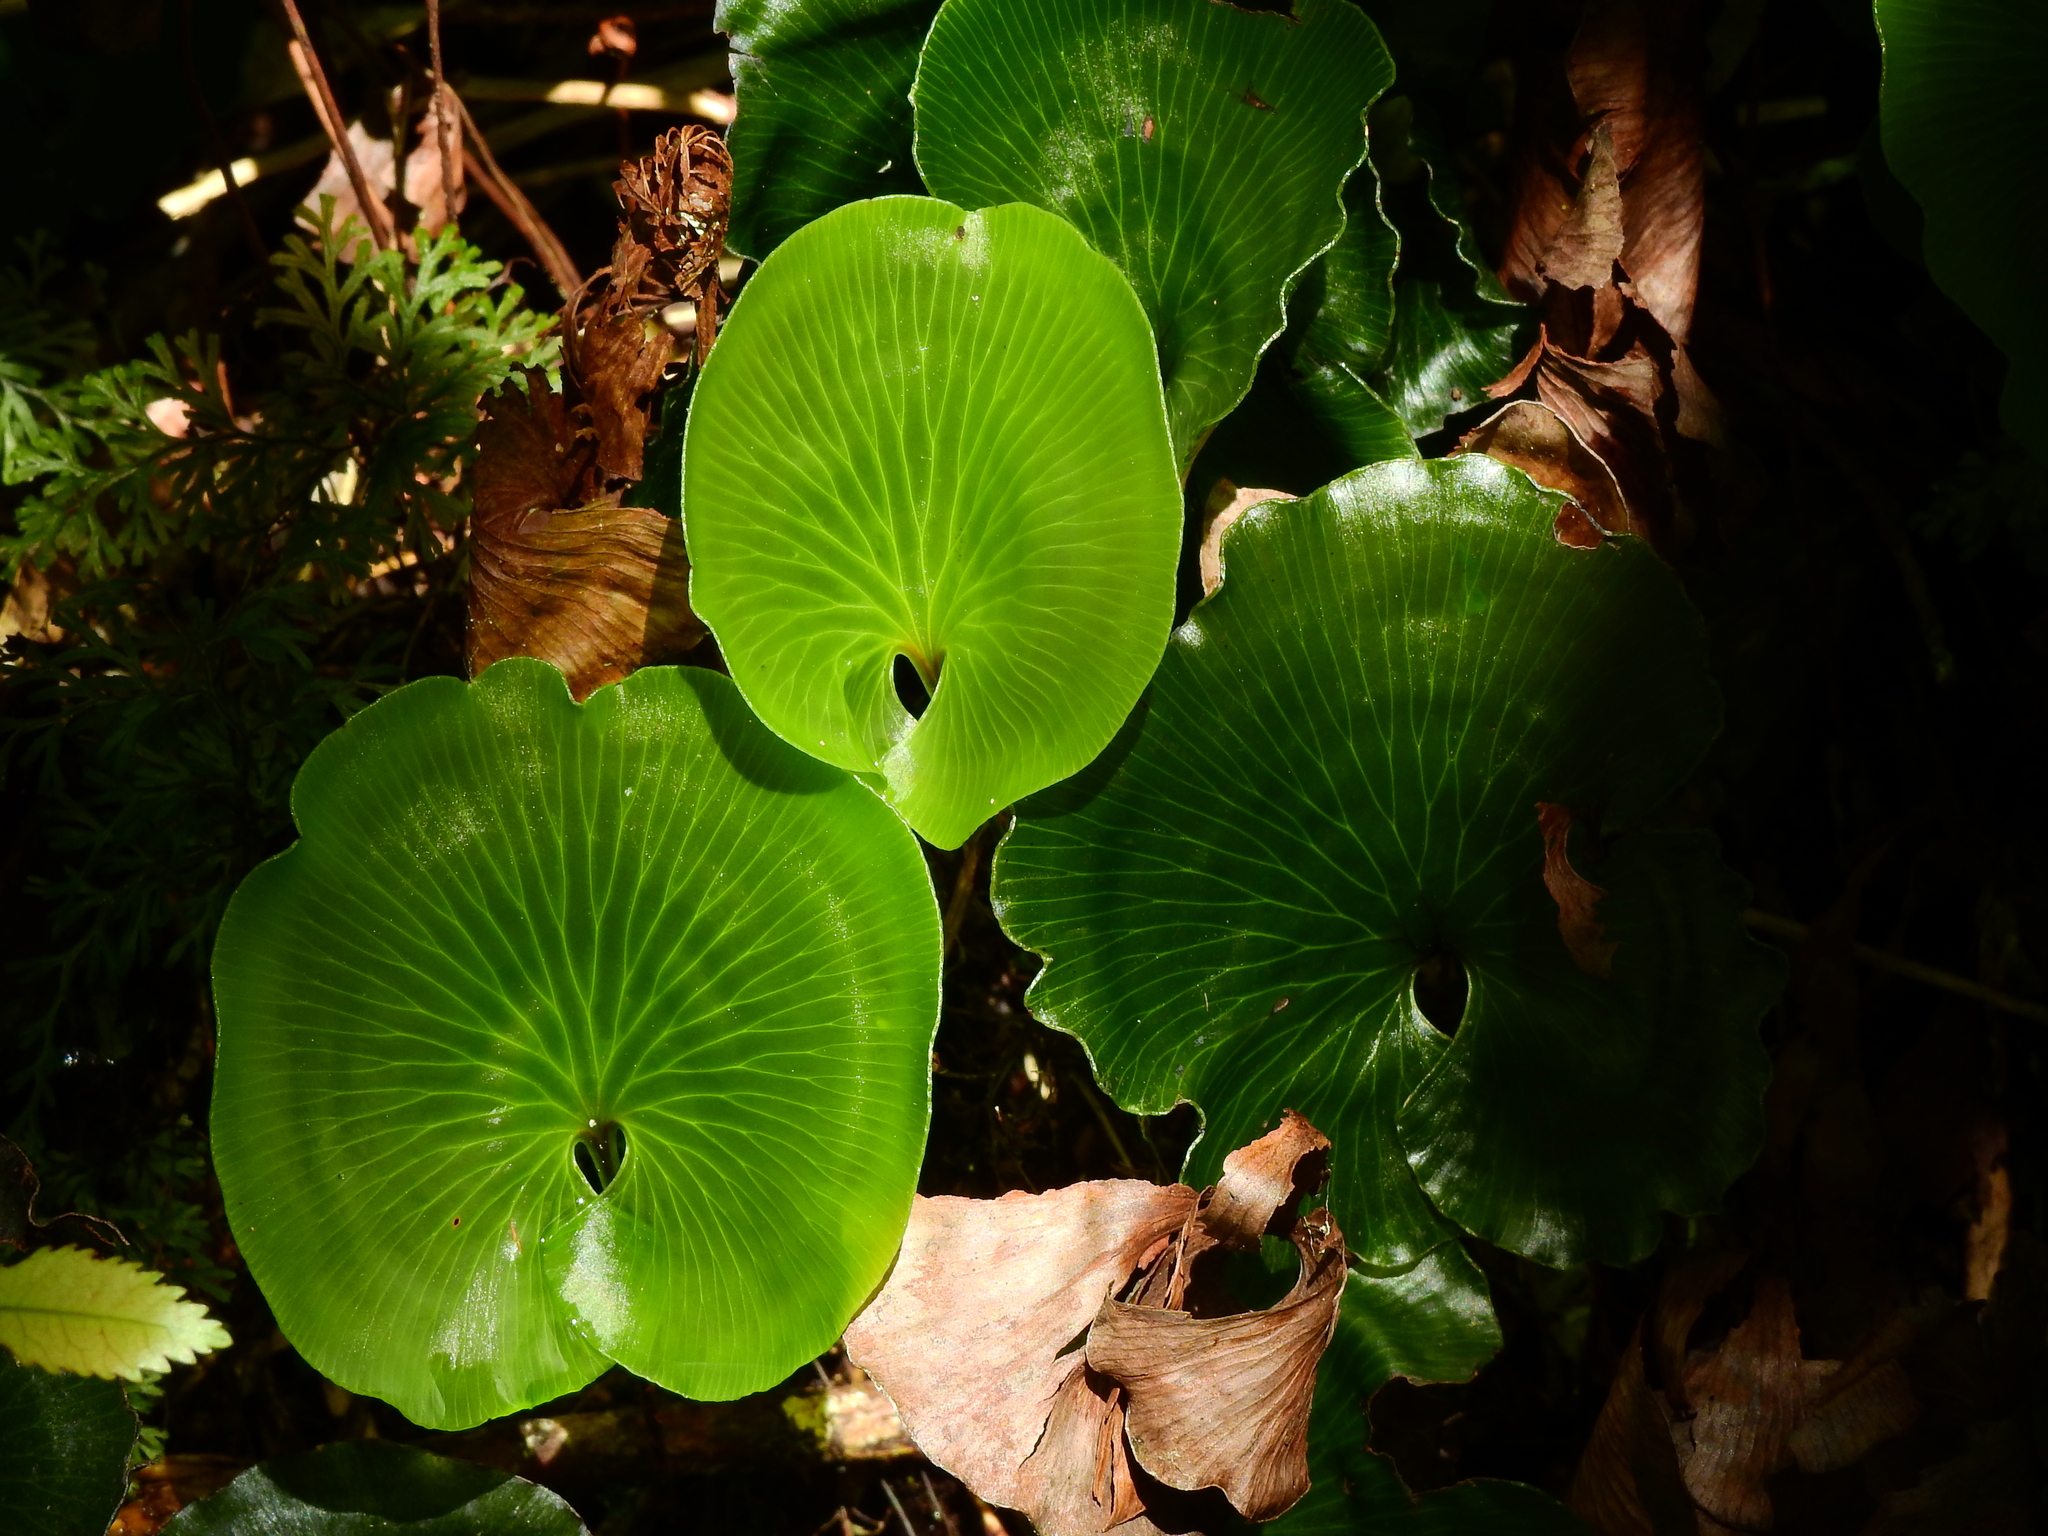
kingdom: Plantae
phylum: Tracheophyta
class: Polypodiopsida
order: Hymenophyllales
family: Hymenophyllaceae
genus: Hymenophyllum
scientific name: Hymenophyllum nephrophyllum
